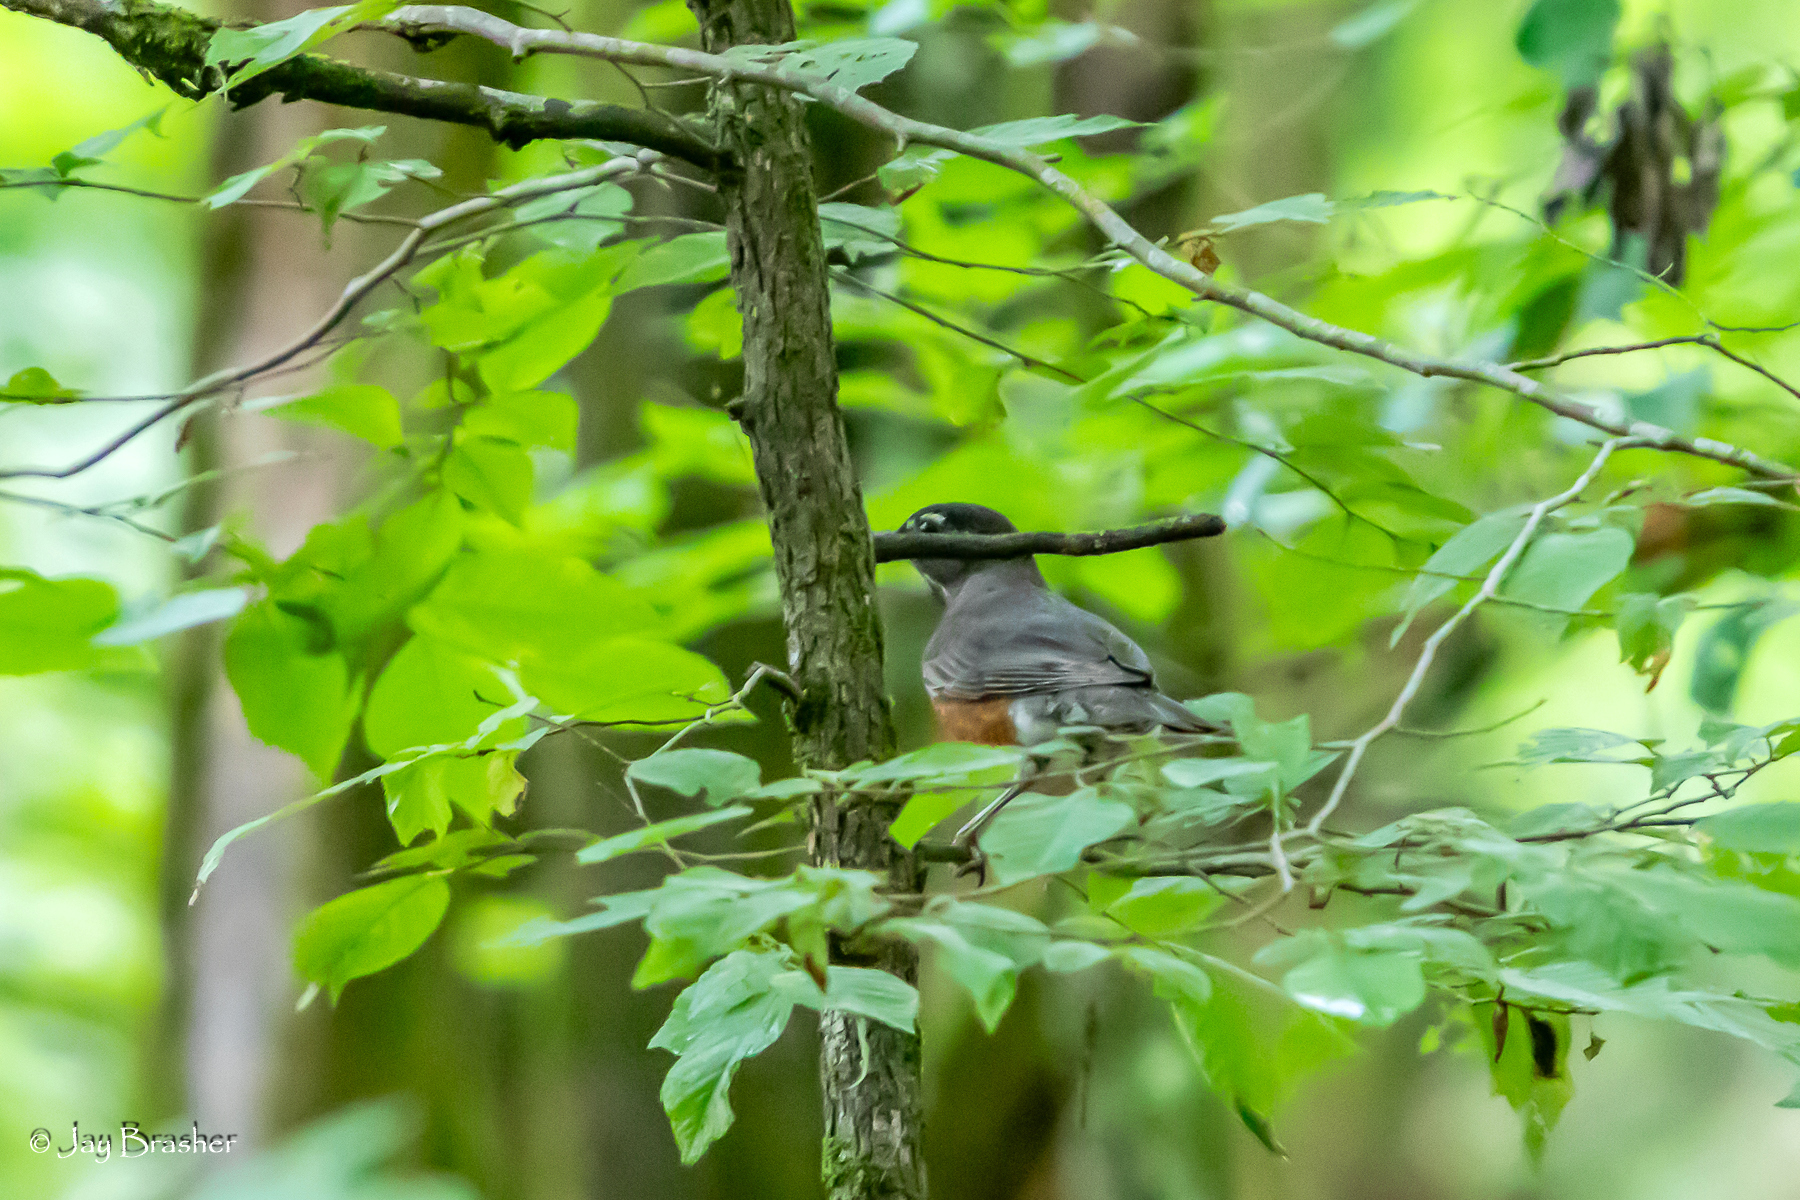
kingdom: Animalia
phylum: Chordata
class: Aves
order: Passeriformes
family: Turdidae
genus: Turdus
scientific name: Turdus migratorius
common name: American robin
